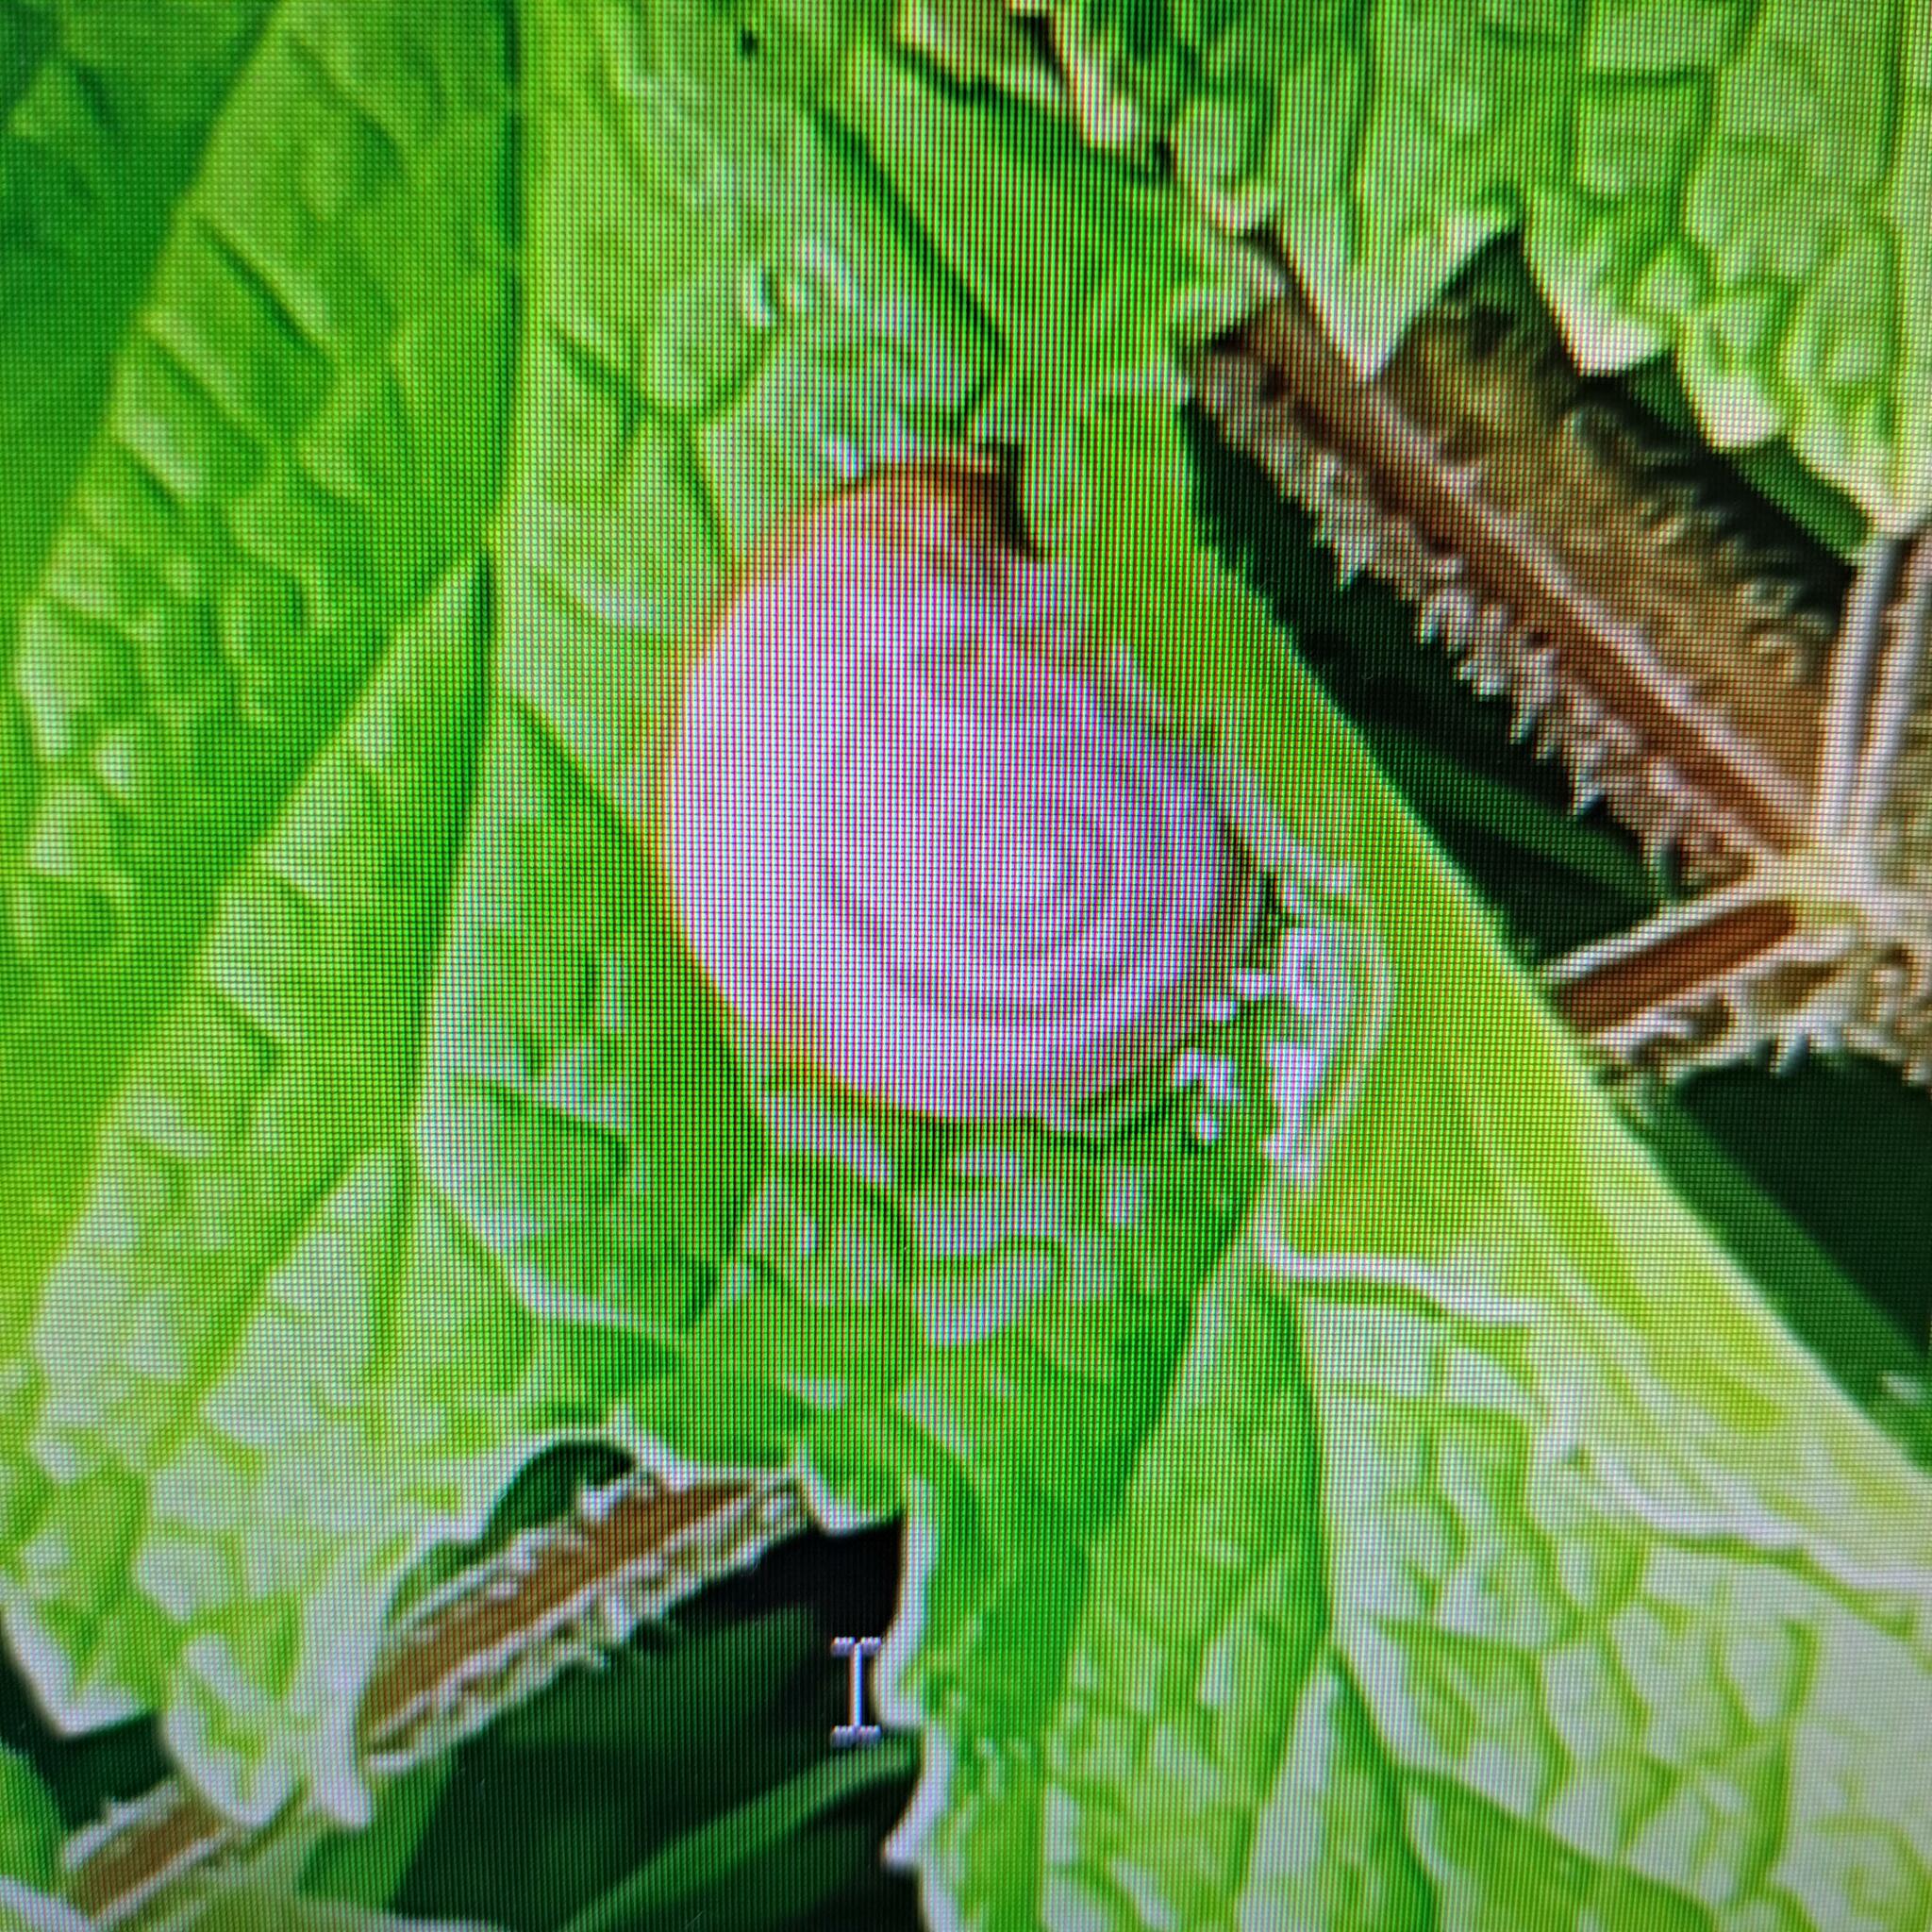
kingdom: Animalia
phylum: Mollusca
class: Gastropoda
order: Stylommatophora
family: Hygromiidae
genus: Monacha
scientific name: Monacha cantiana
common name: Kentish snail
